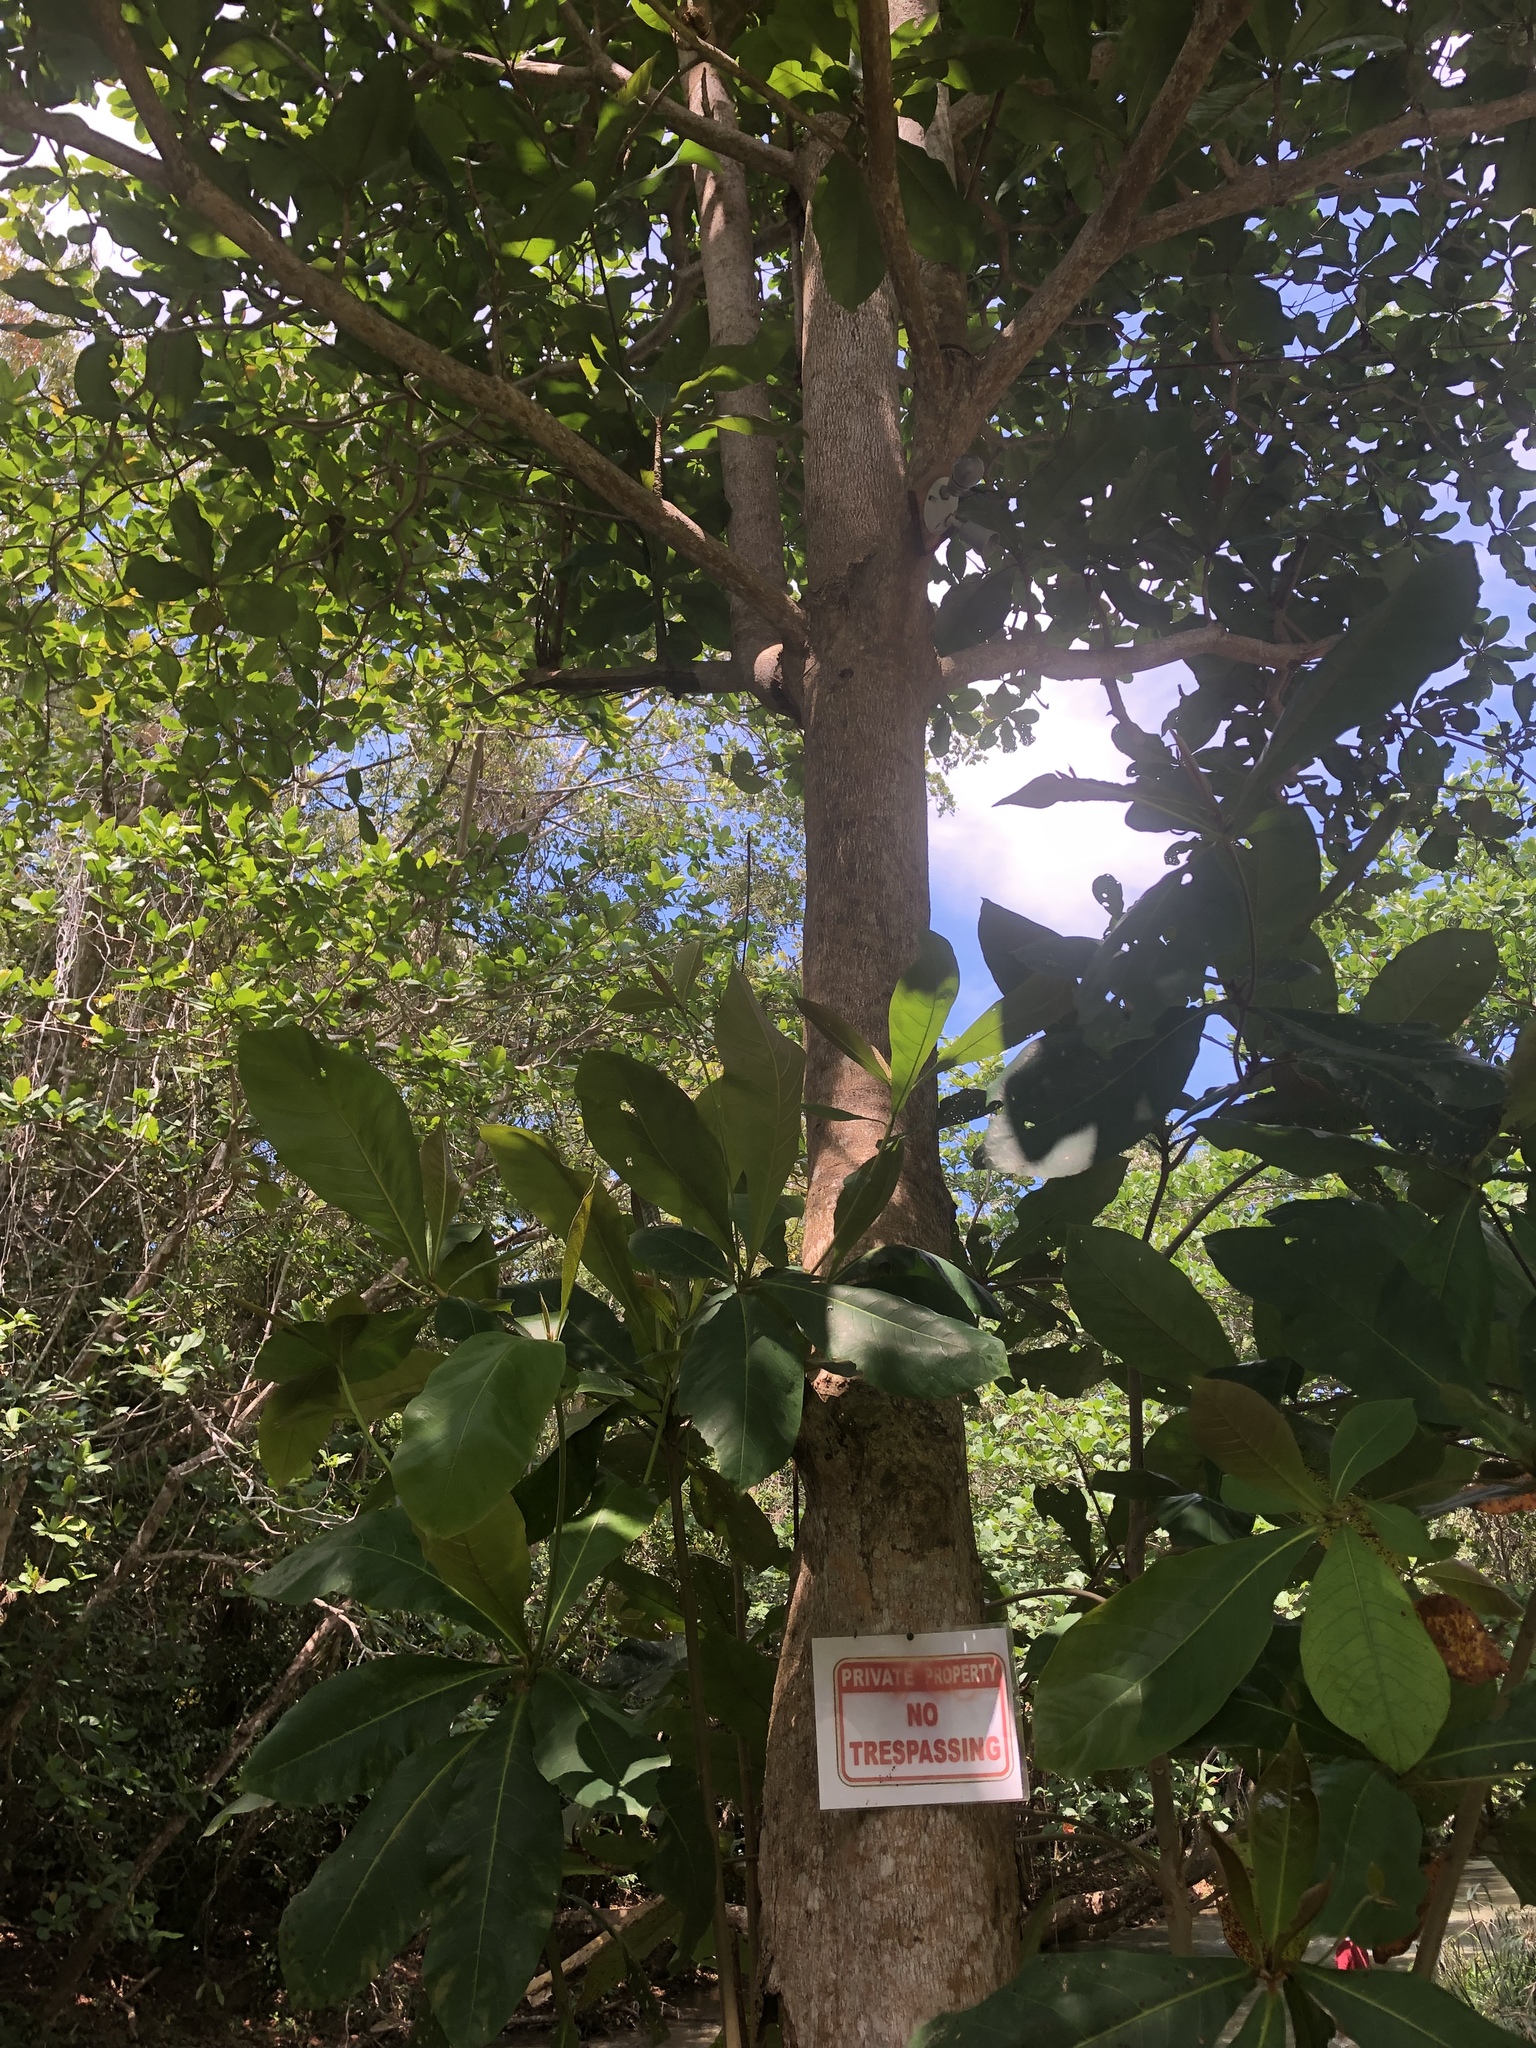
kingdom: Plantae
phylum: Tracheophyta
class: Magnoliopsida
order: Myrtales
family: Combretaceae
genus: Terminalia
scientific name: Terminalia catappa
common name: Tropical almond
